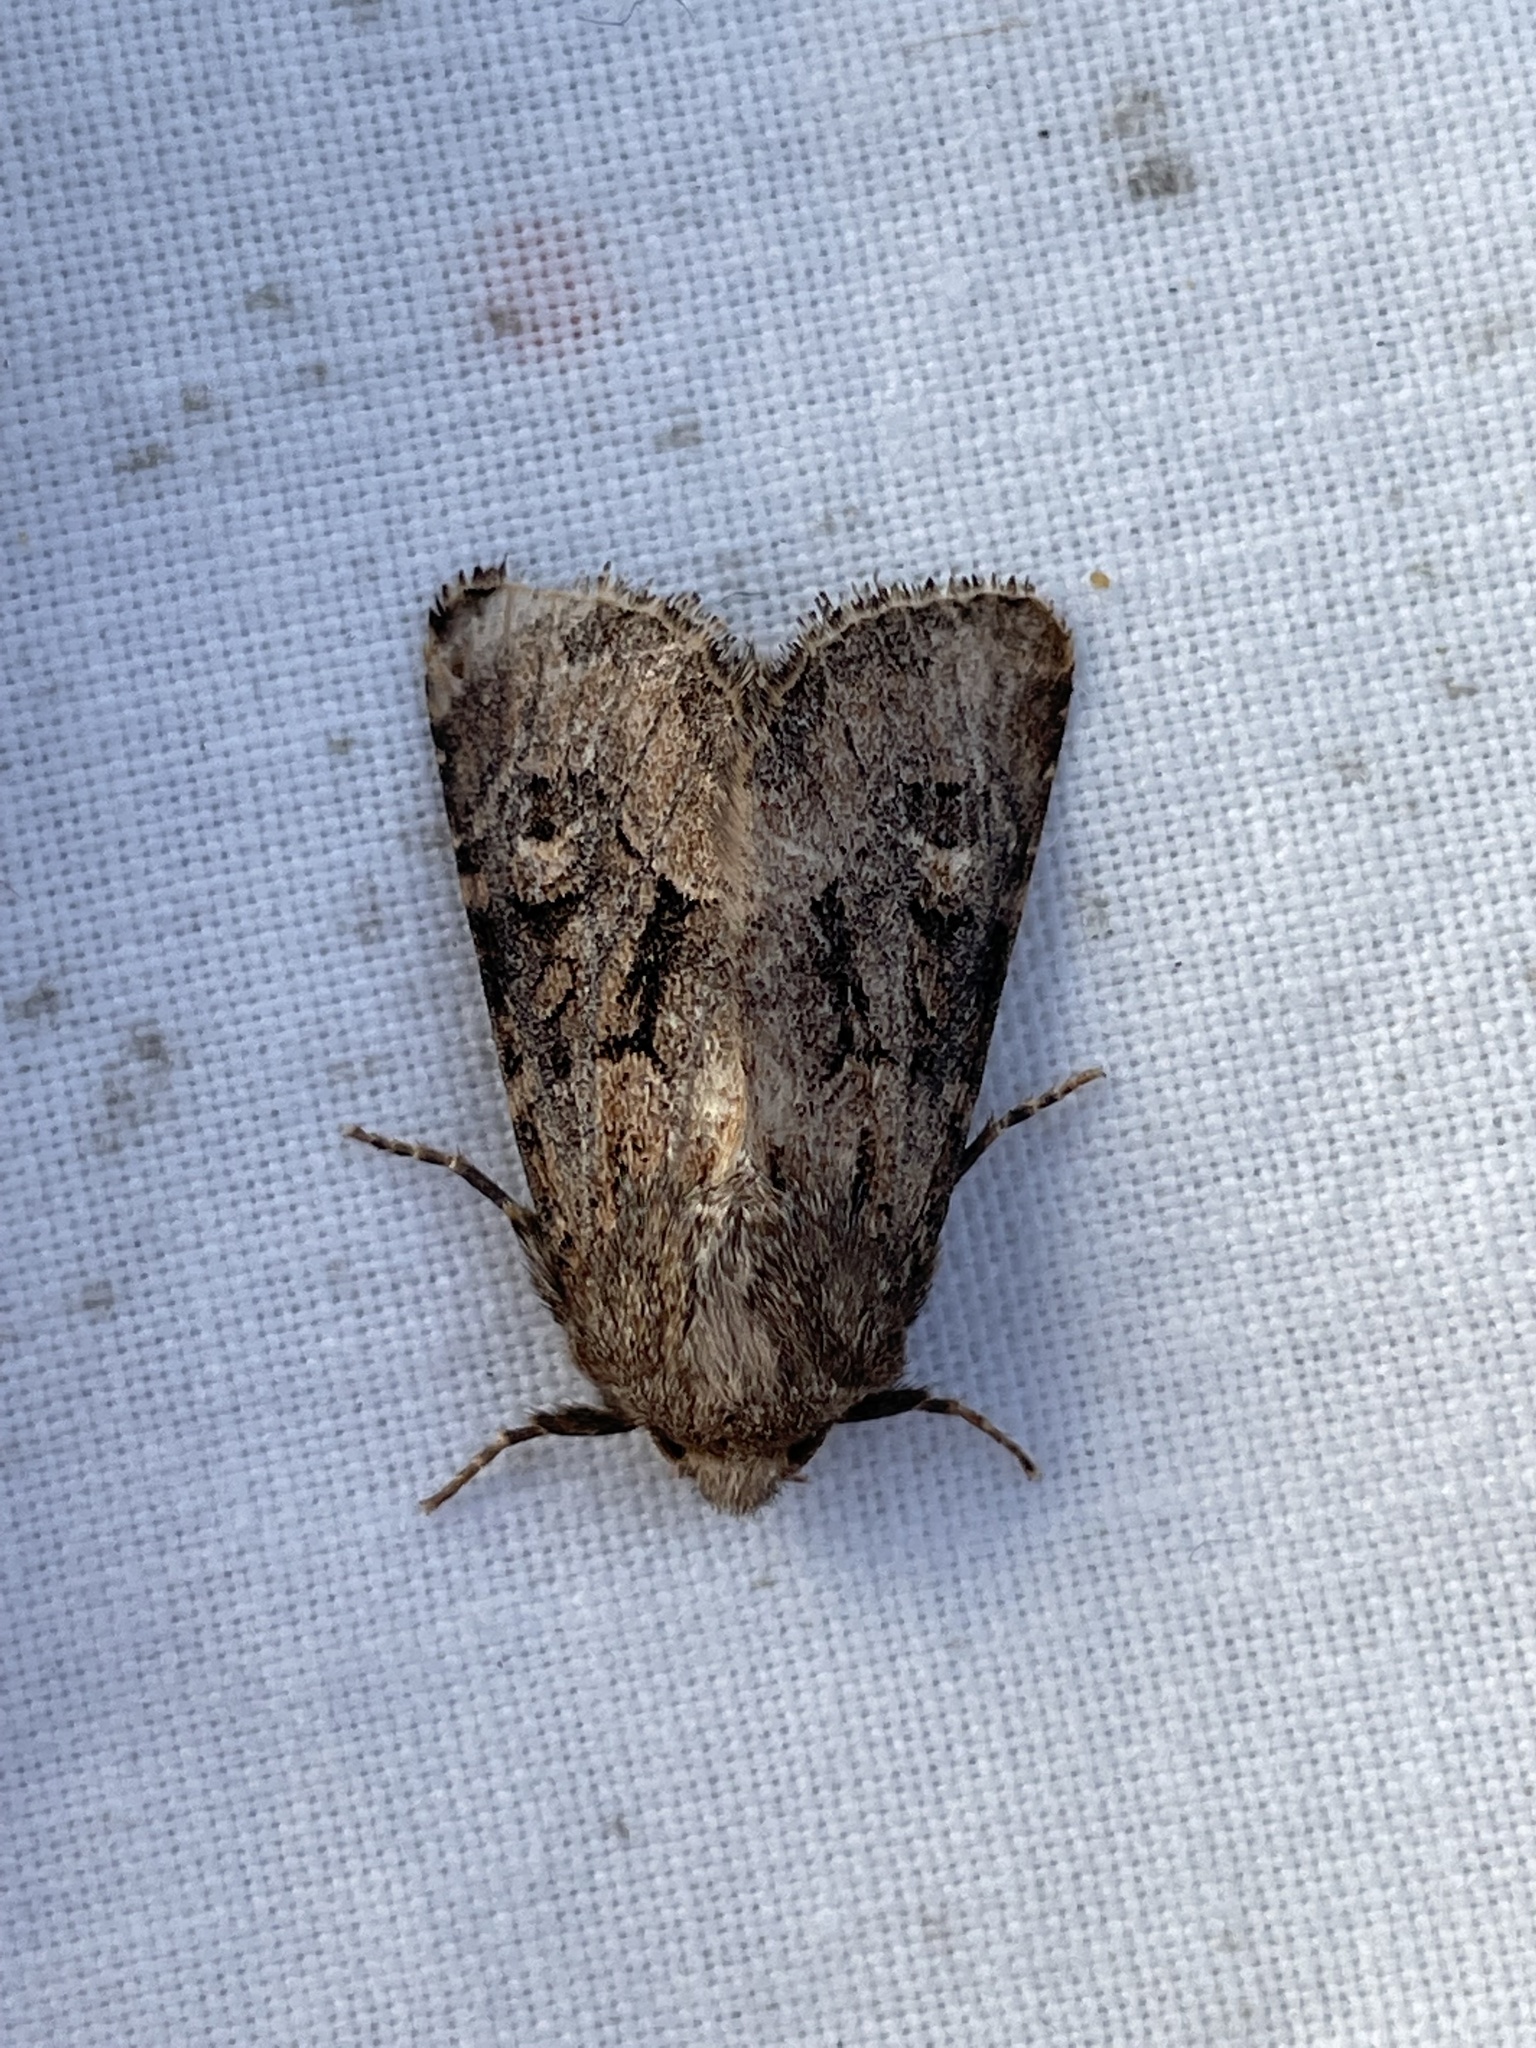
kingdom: Animalia
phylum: Arthropoda
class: Insecta
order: Lepidoptera
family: Noctuidae
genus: Luperina
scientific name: Luperina testacea
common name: Flounced rustic
